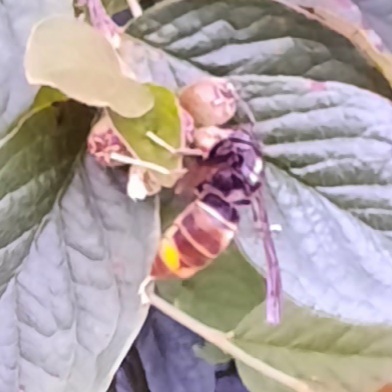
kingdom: Animalia
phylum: Arthropoda
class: Insecta
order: Hymenoptera
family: Vespidae
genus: Vespa
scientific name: Vespa velutina
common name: Asian hornet
